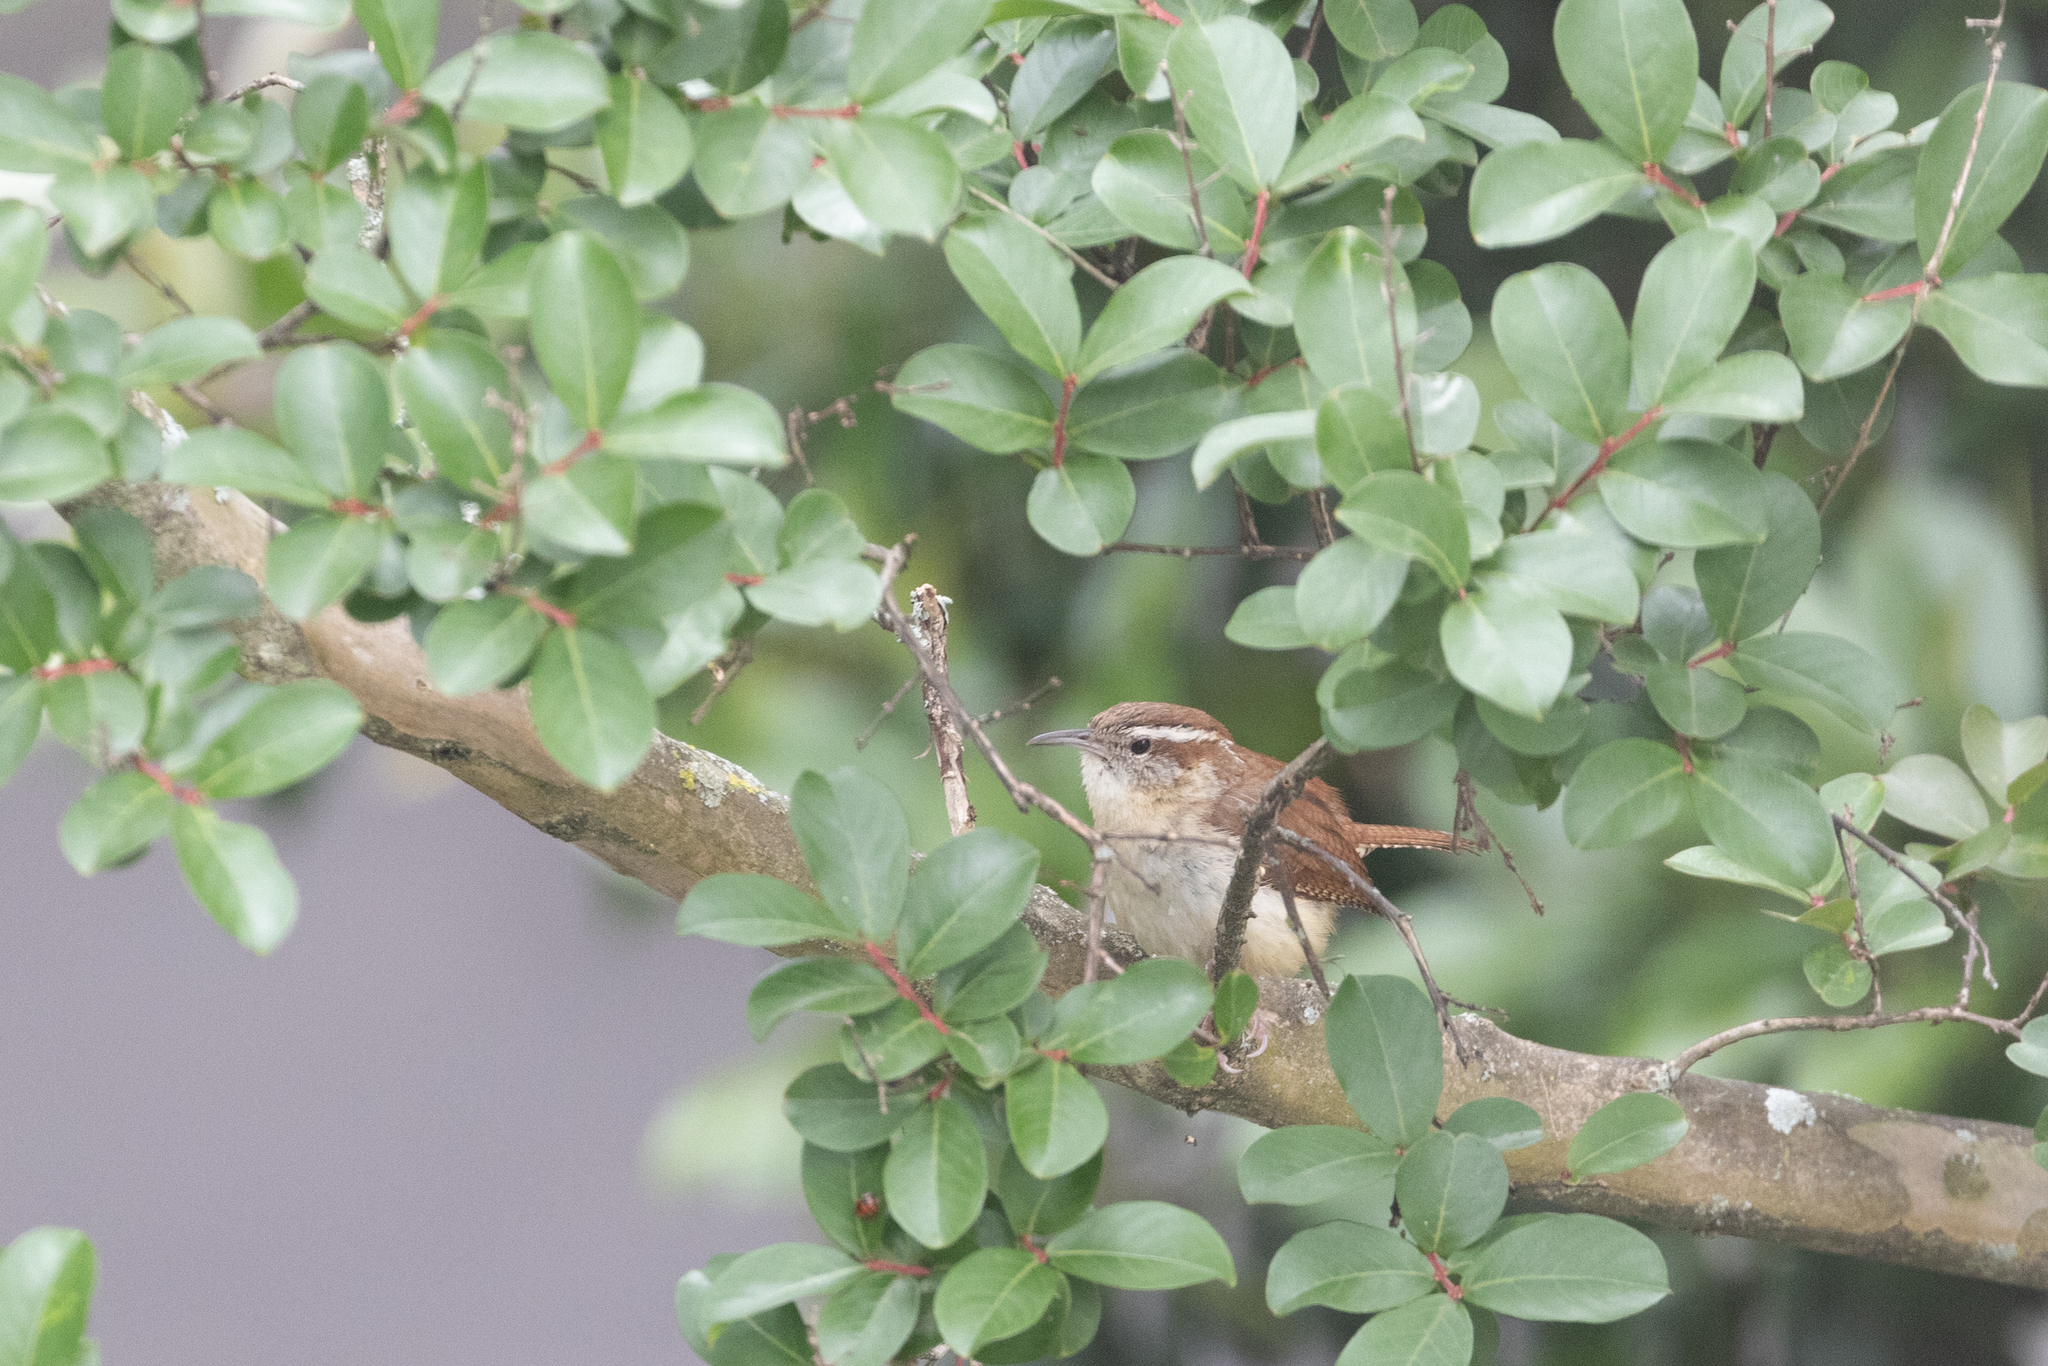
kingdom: Animalia
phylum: Chordata
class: Aves
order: Passeriformes
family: Troglodytidae
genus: Thryothorus
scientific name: Thryothorus ludovicianus
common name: Carolina wren
